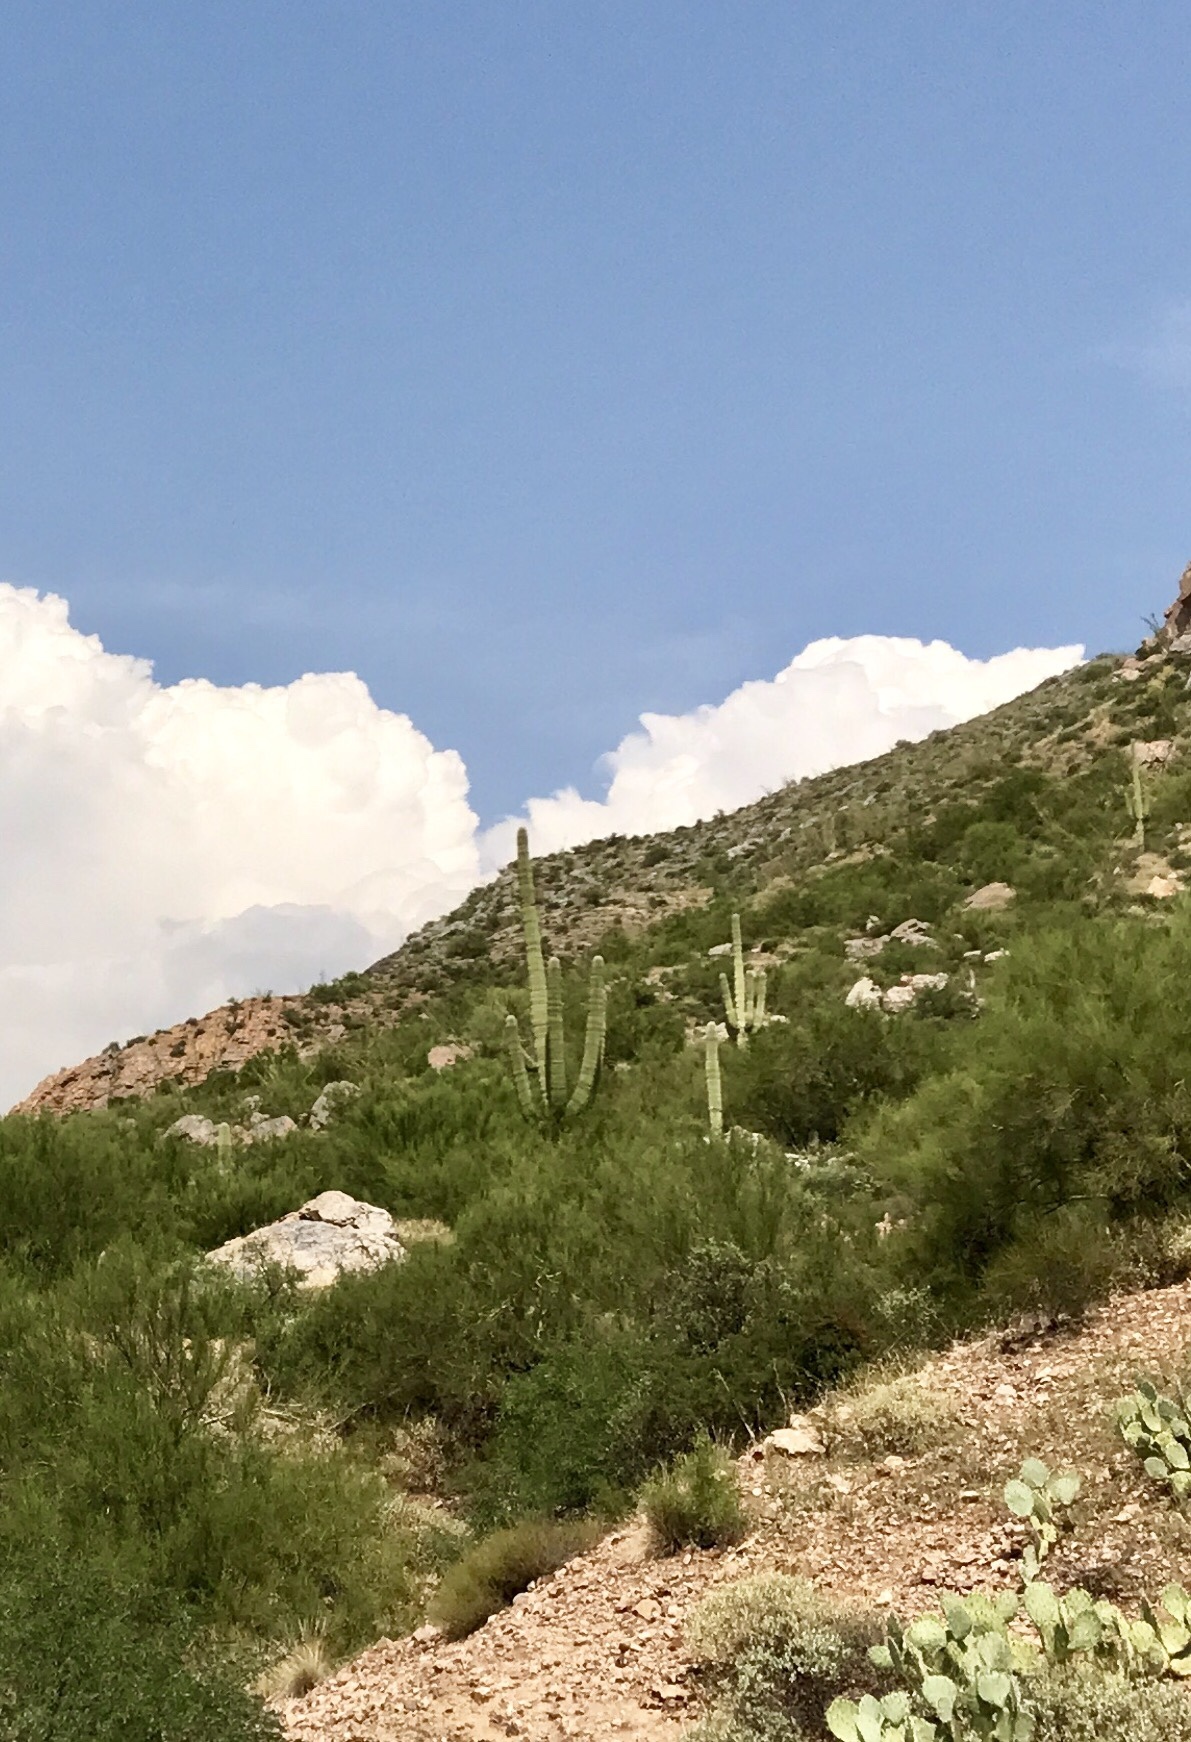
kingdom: Plantae
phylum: Tracheophyta
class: Magnoliopsida
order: Caryophyllales
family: Cactaceae
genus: Carnegiea
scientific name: Carnegiea gigantea
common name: Saguaro
